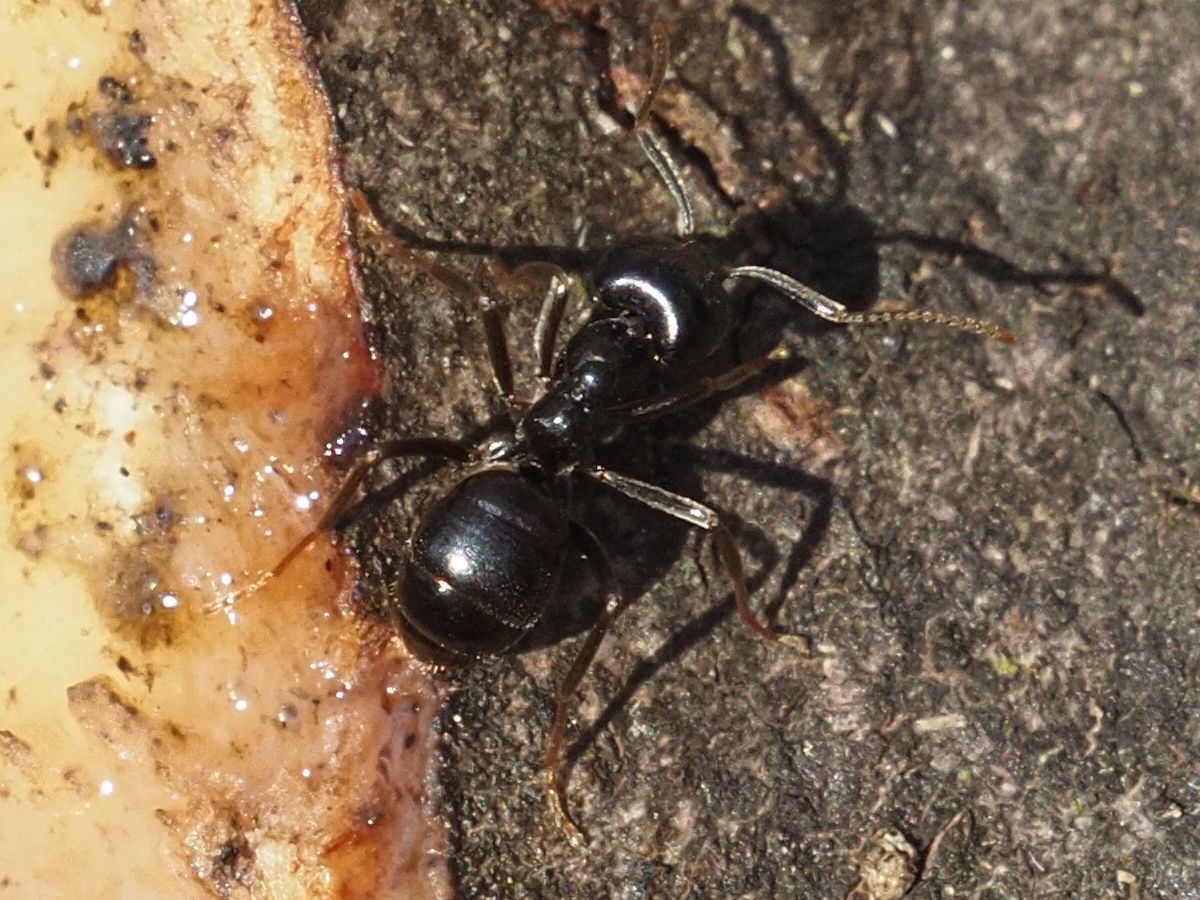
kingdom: Animalia
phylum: Arthropoda
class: Insecta
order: Hymenoptera
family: Formicidae
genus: Lasius
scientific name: Lasius fuliginosus
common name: Jet ant
